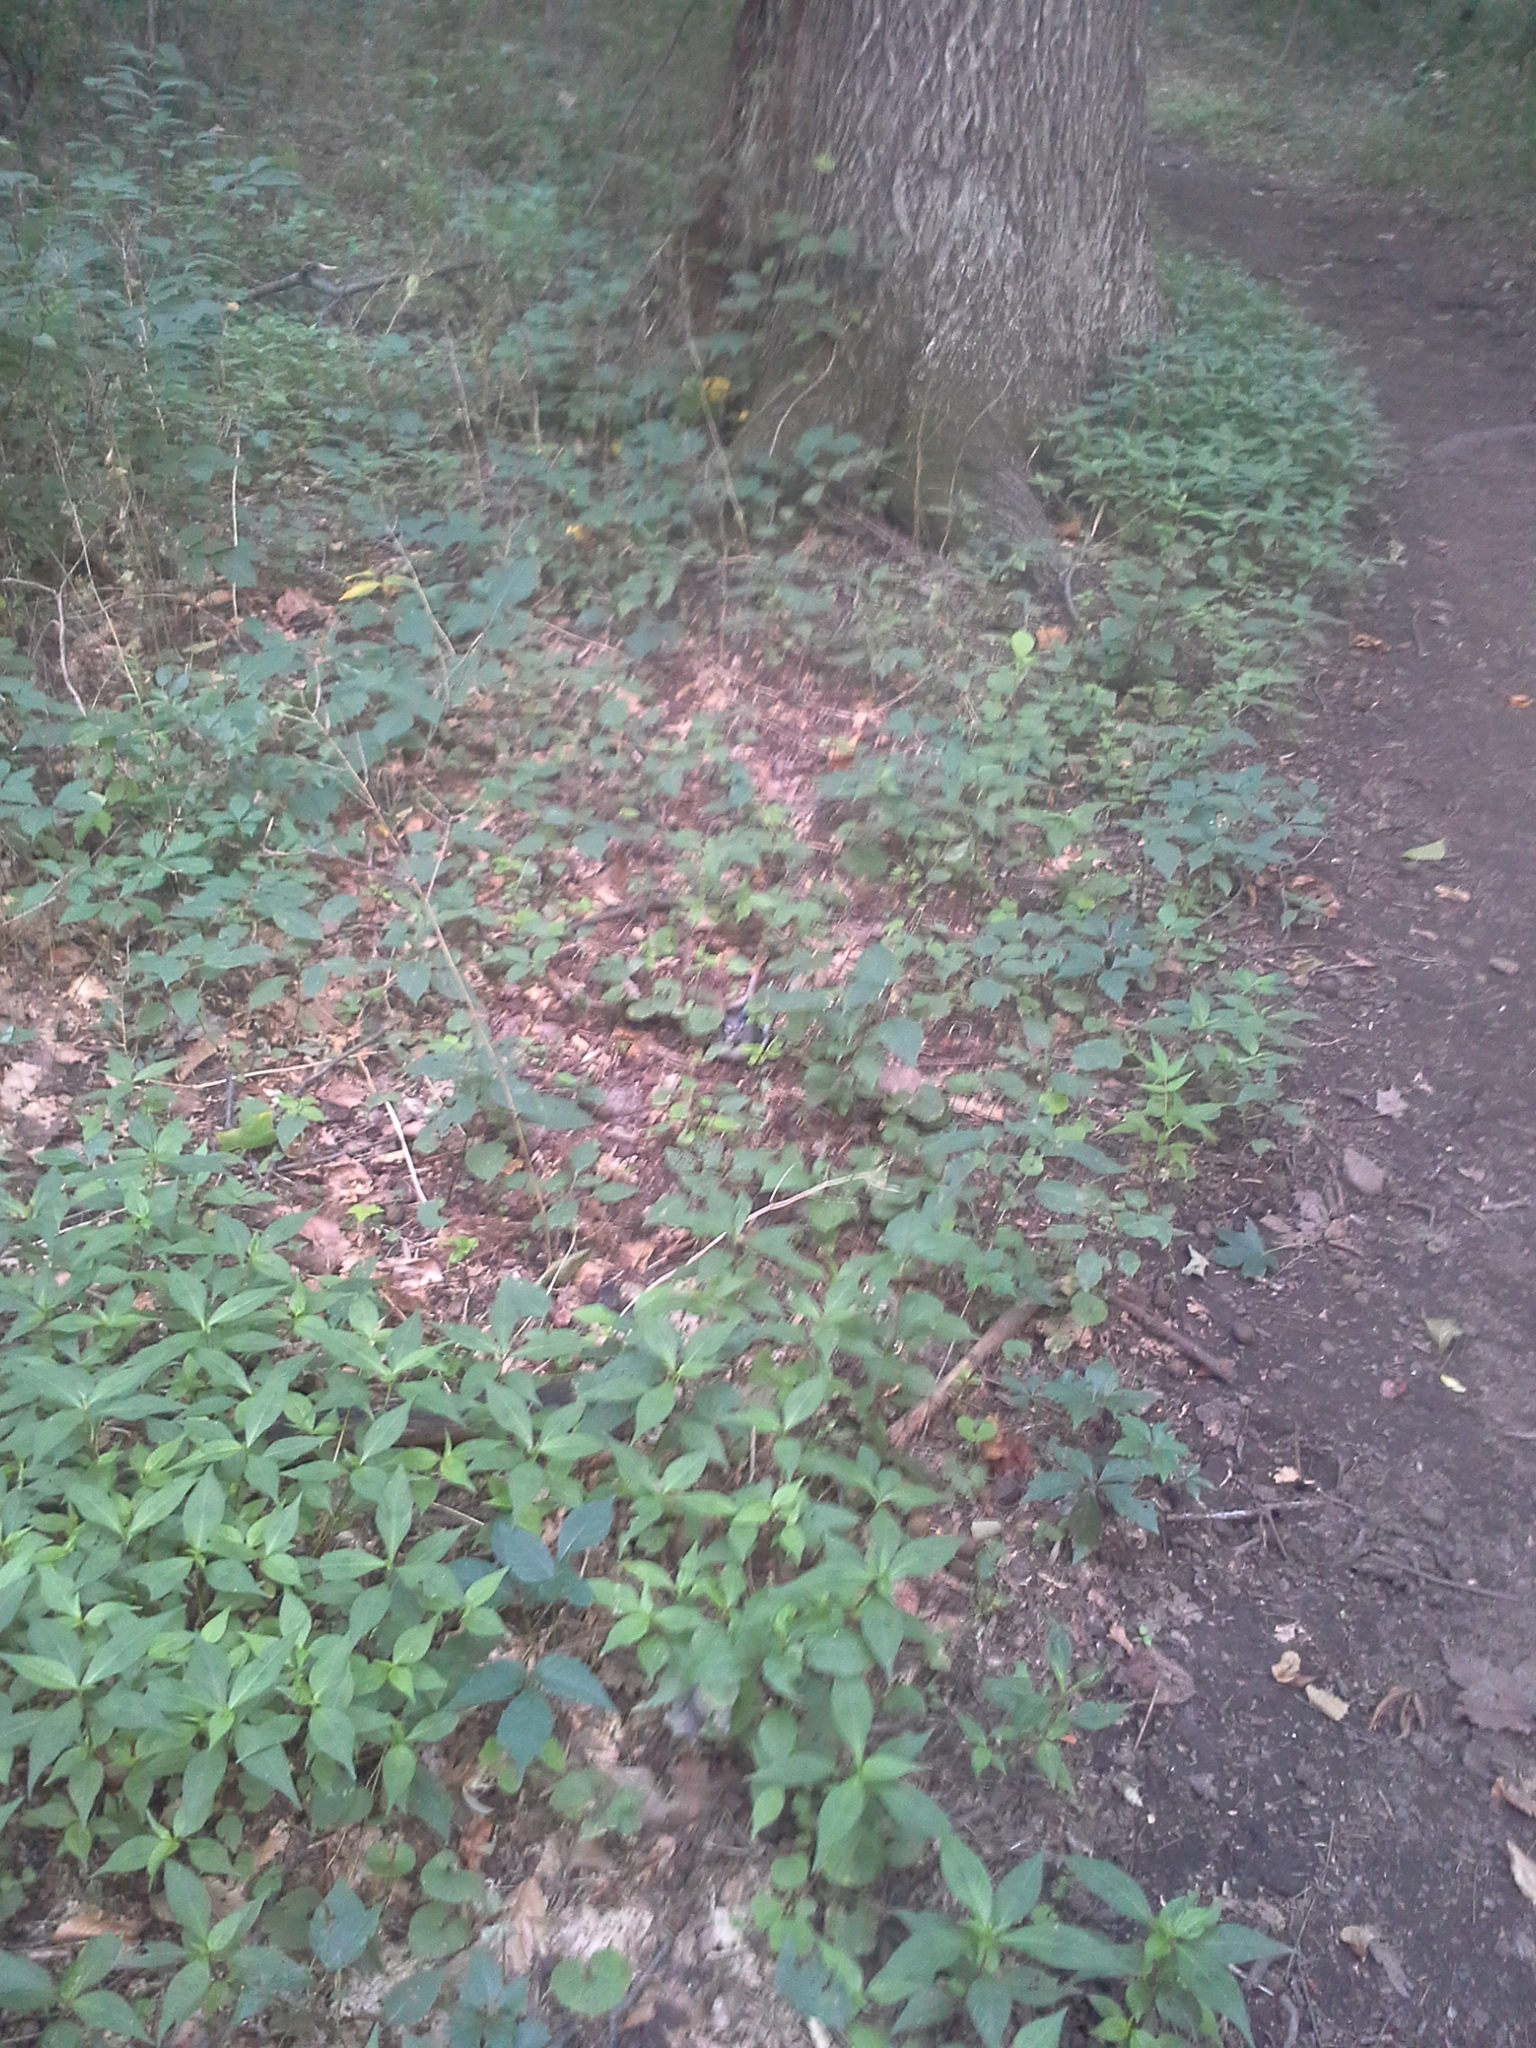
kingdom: Animalia
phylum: Chordata
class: Aves
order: Passeriformes
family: Corvidae
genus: Cyanocitta
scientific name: Cyanocitta cristata
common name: Blue jay
